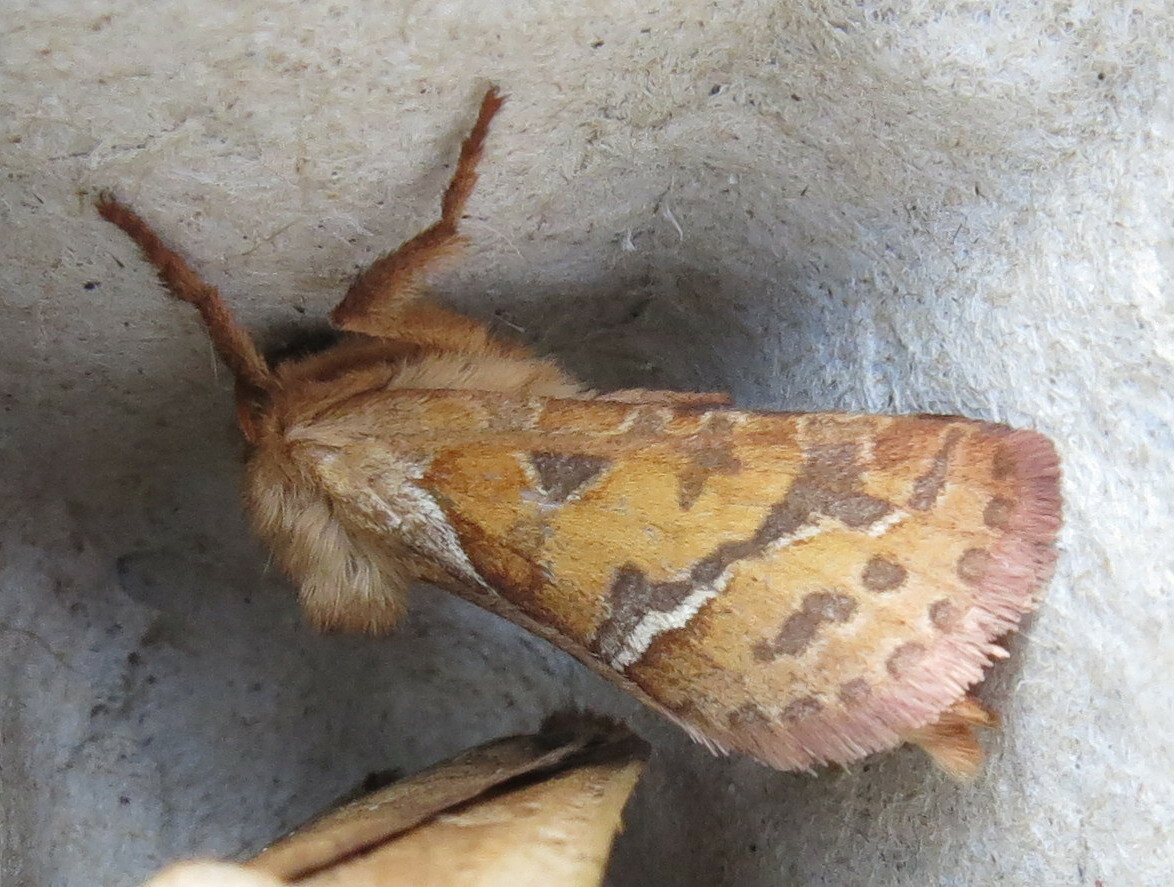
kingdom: Animalia
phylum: Arthropoda
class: Insecta
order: Lepidoptera
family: Hepialidae
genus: Triodia
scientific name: Triodia sylvina
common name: Orange swift
